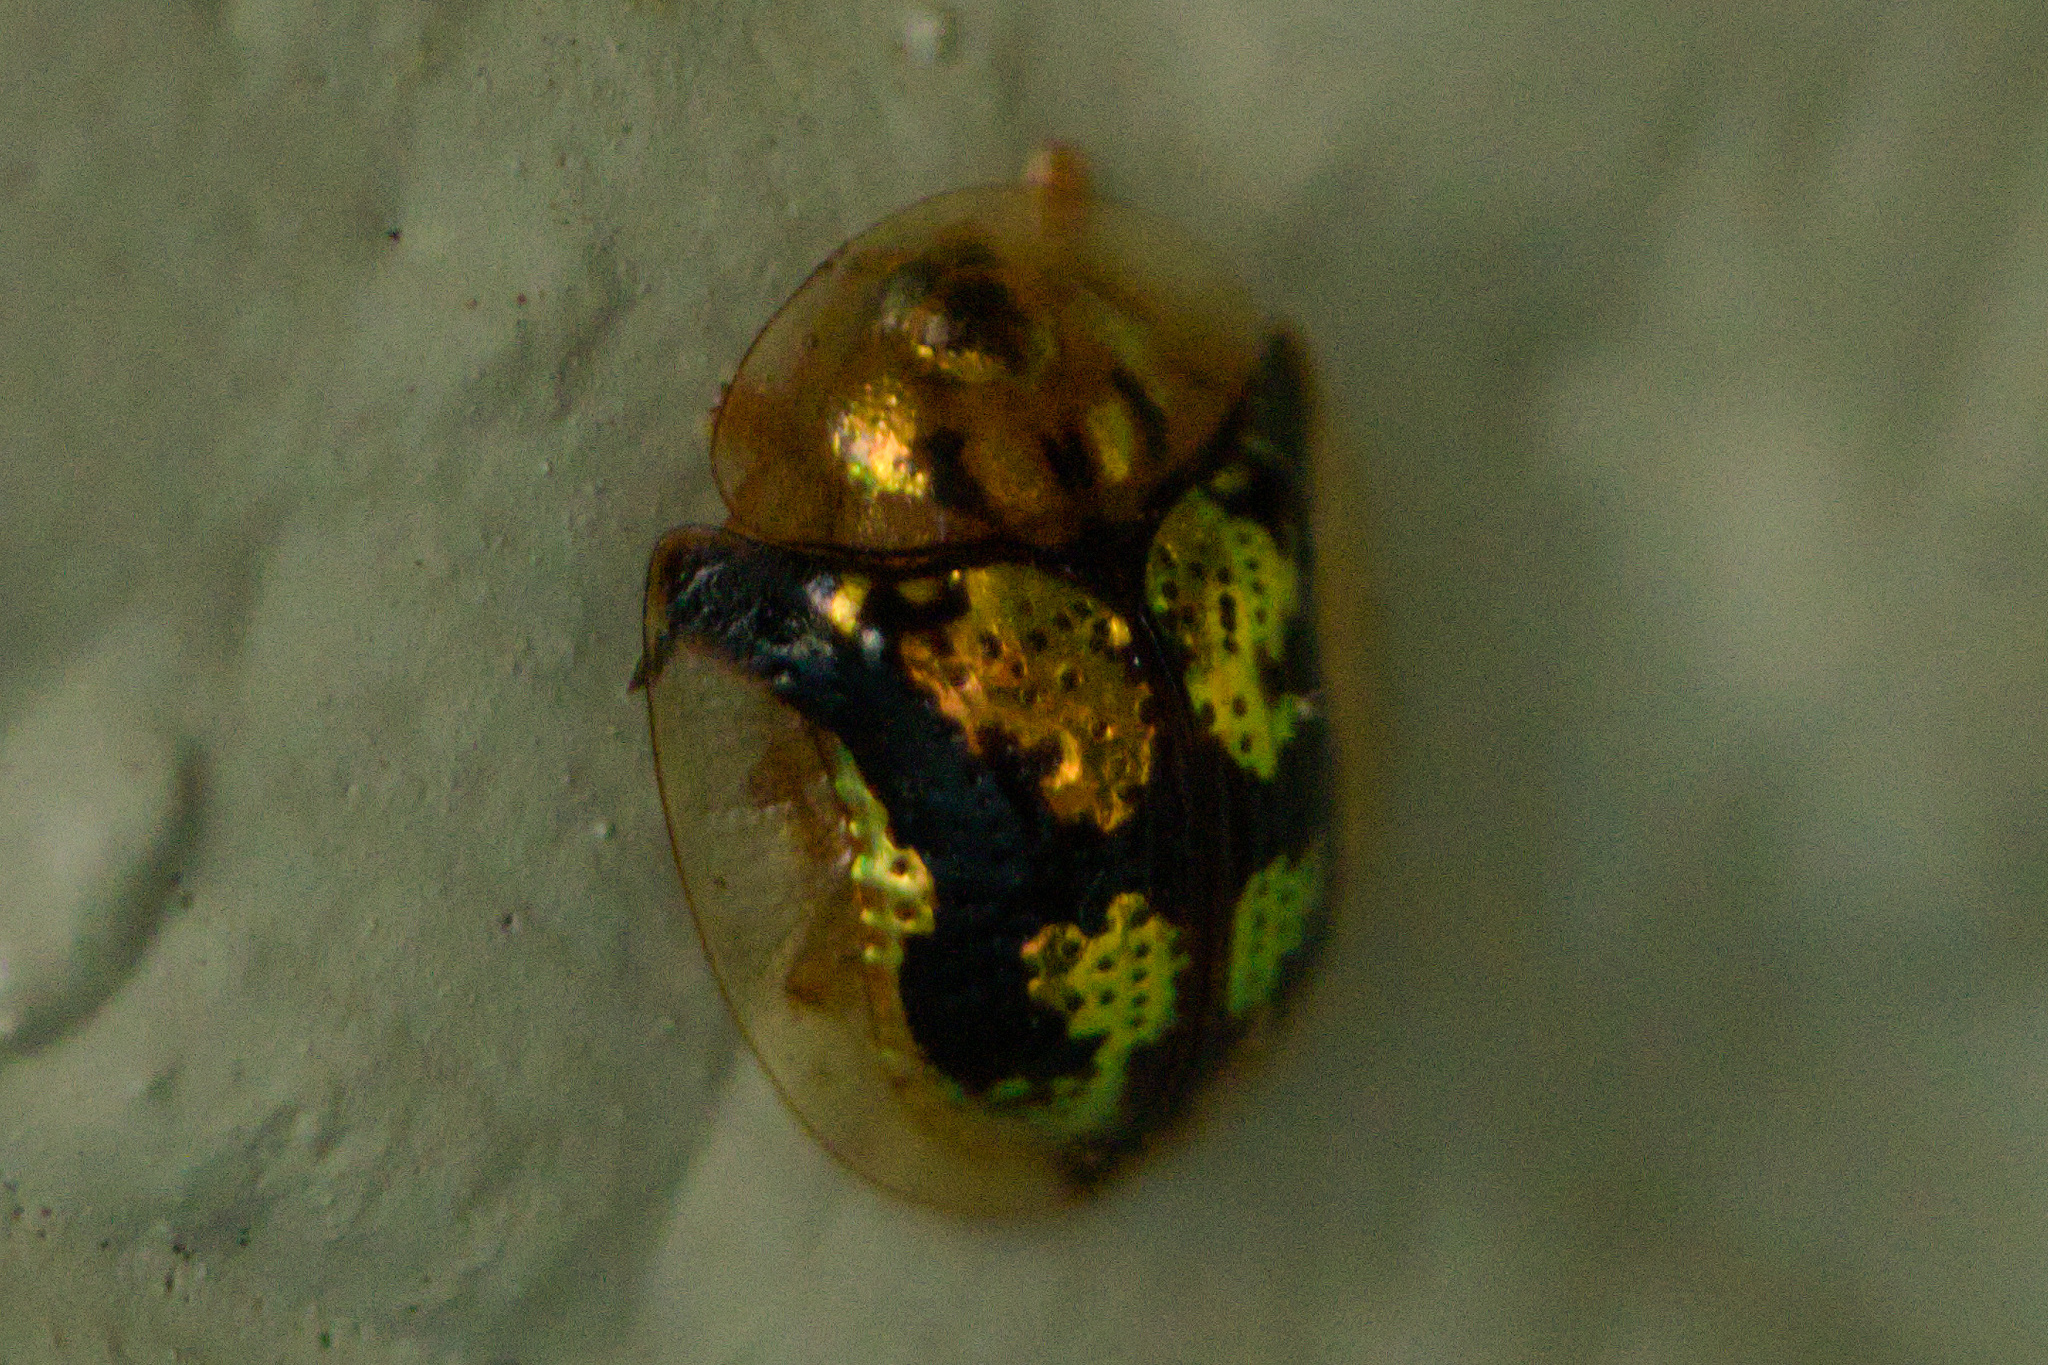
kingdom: Animalia
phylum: Arthropoda
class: Insecta
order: Coleoptera
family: Chrysomelidae
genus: Deloyala
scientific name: Deloyala guttata
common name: Mottled tortoise beetle
